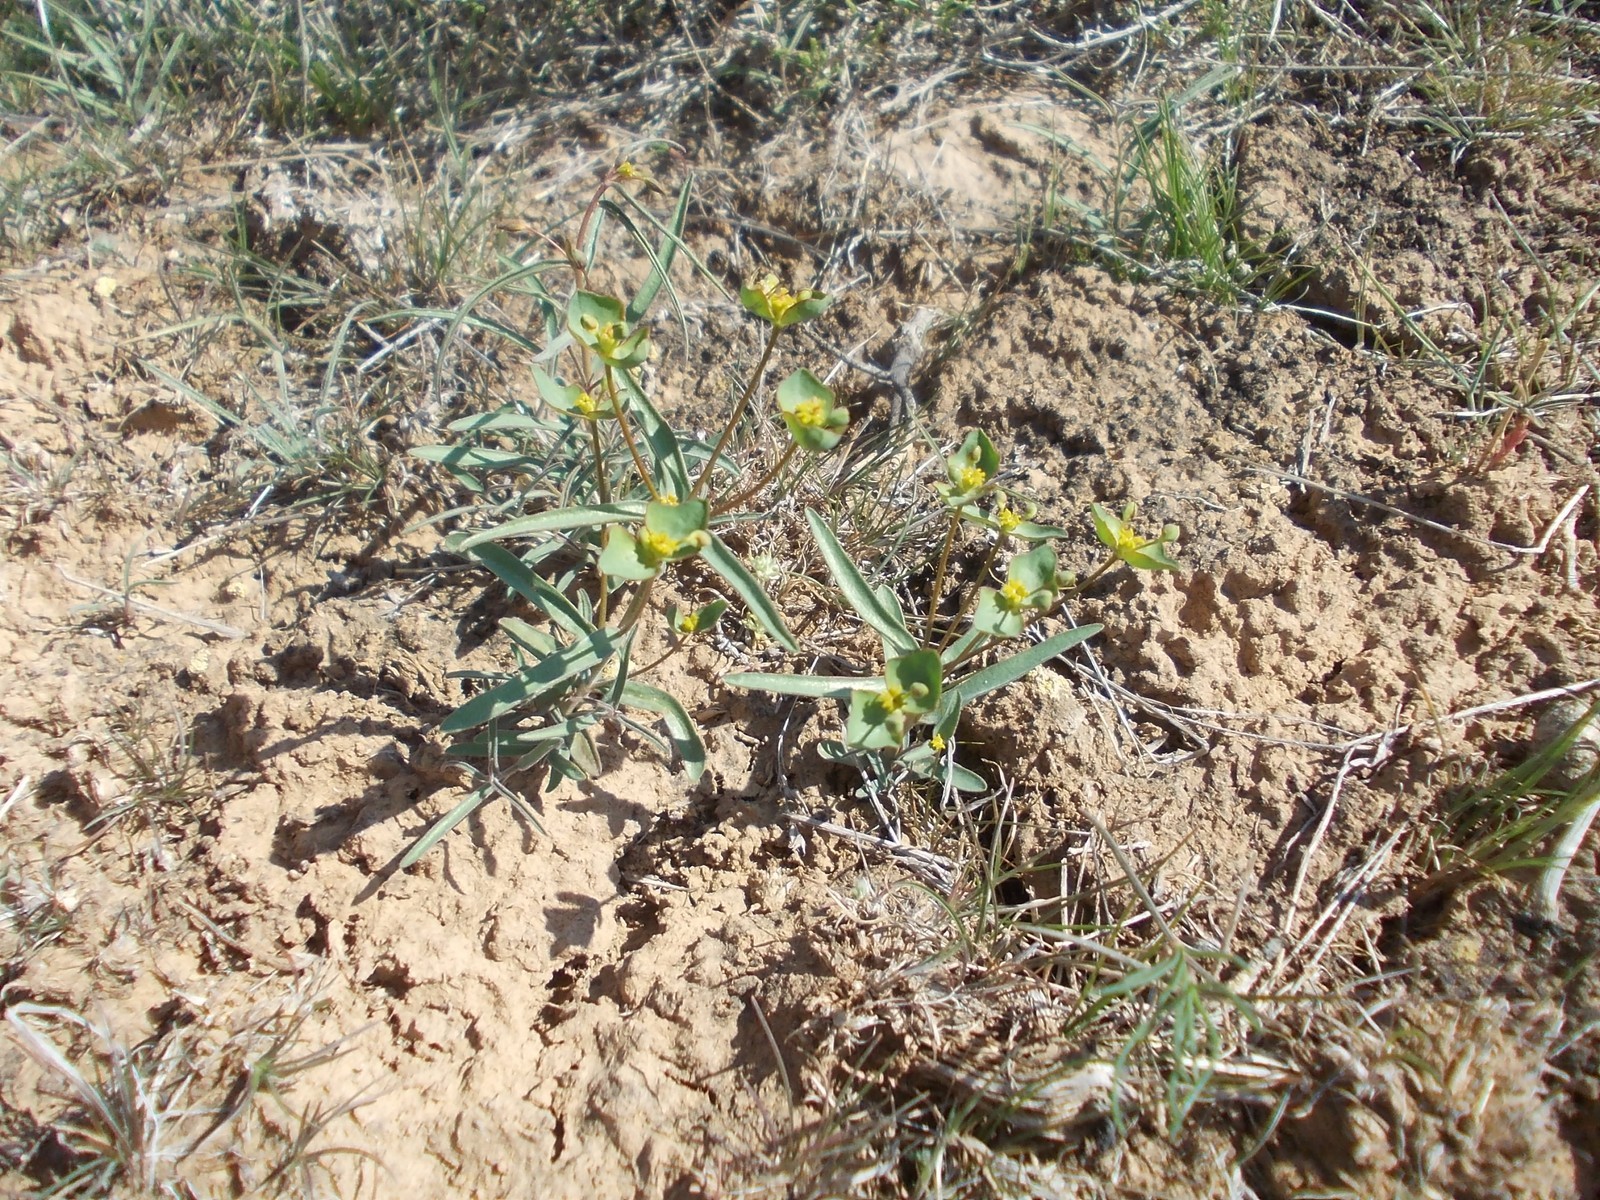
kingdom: Plantae
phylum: Tracheophyta
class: Magnoliopsida
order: Malpighiales
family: Euphorbiaceae
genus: Euphorbia
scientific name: Euphorbia praecox
